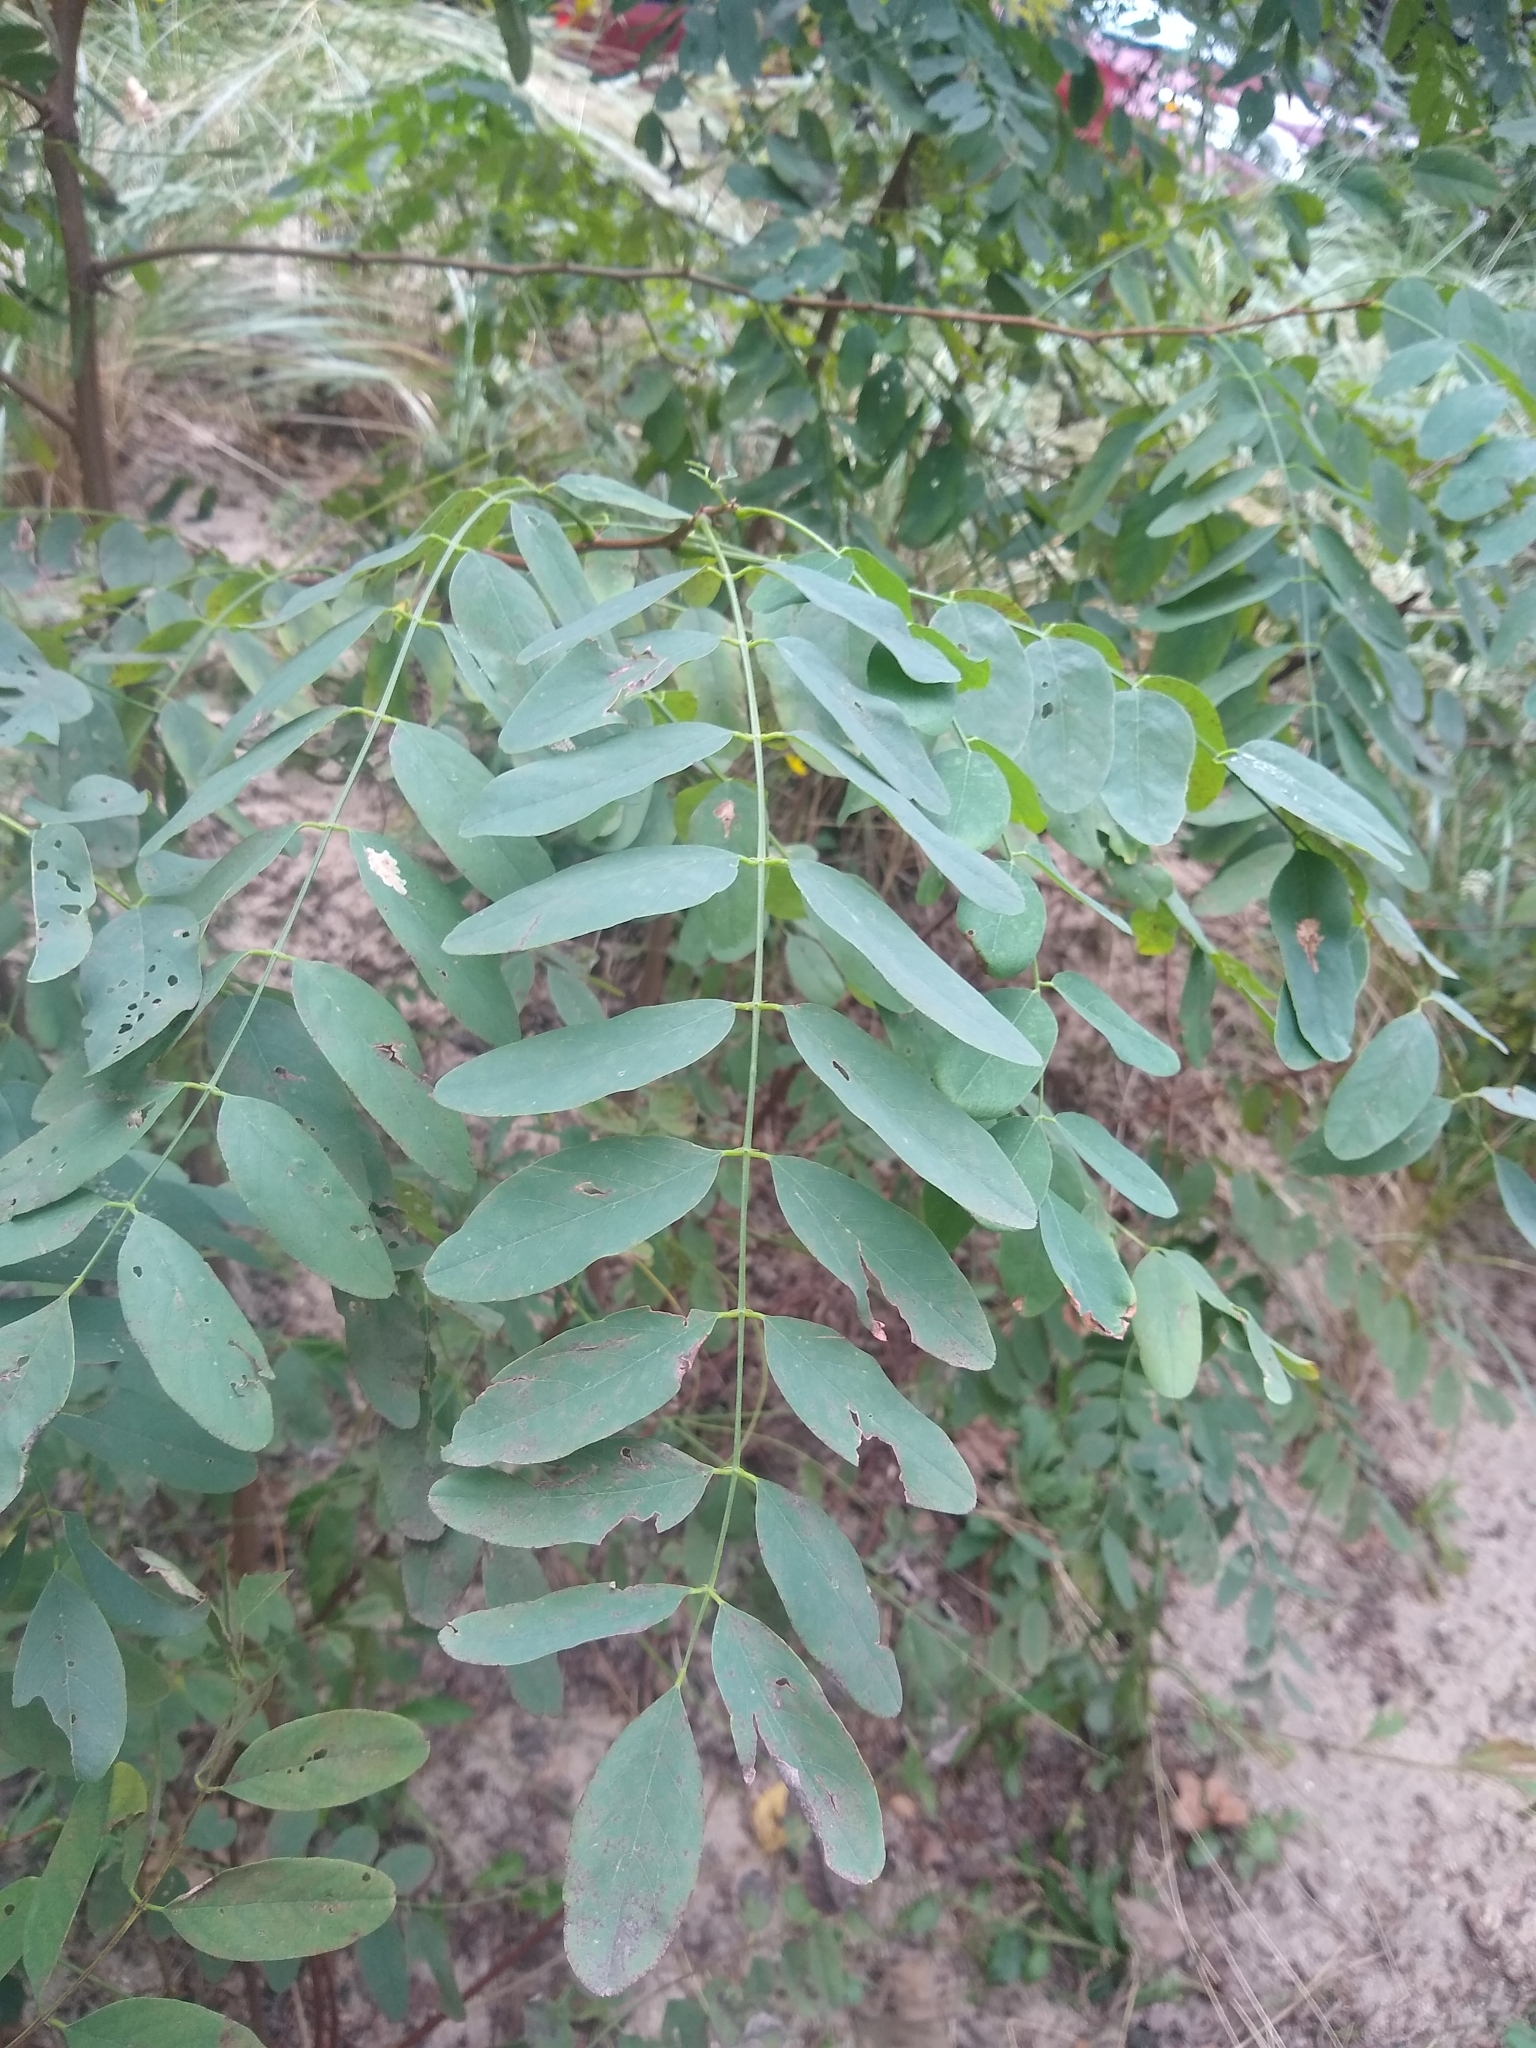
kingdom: Plantae
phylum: Tracheophyta
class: Magnoliopsida
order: Fabales
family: Fabaceae
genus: Robinia
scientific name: Robinia pseudoacacia
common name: Black locust
